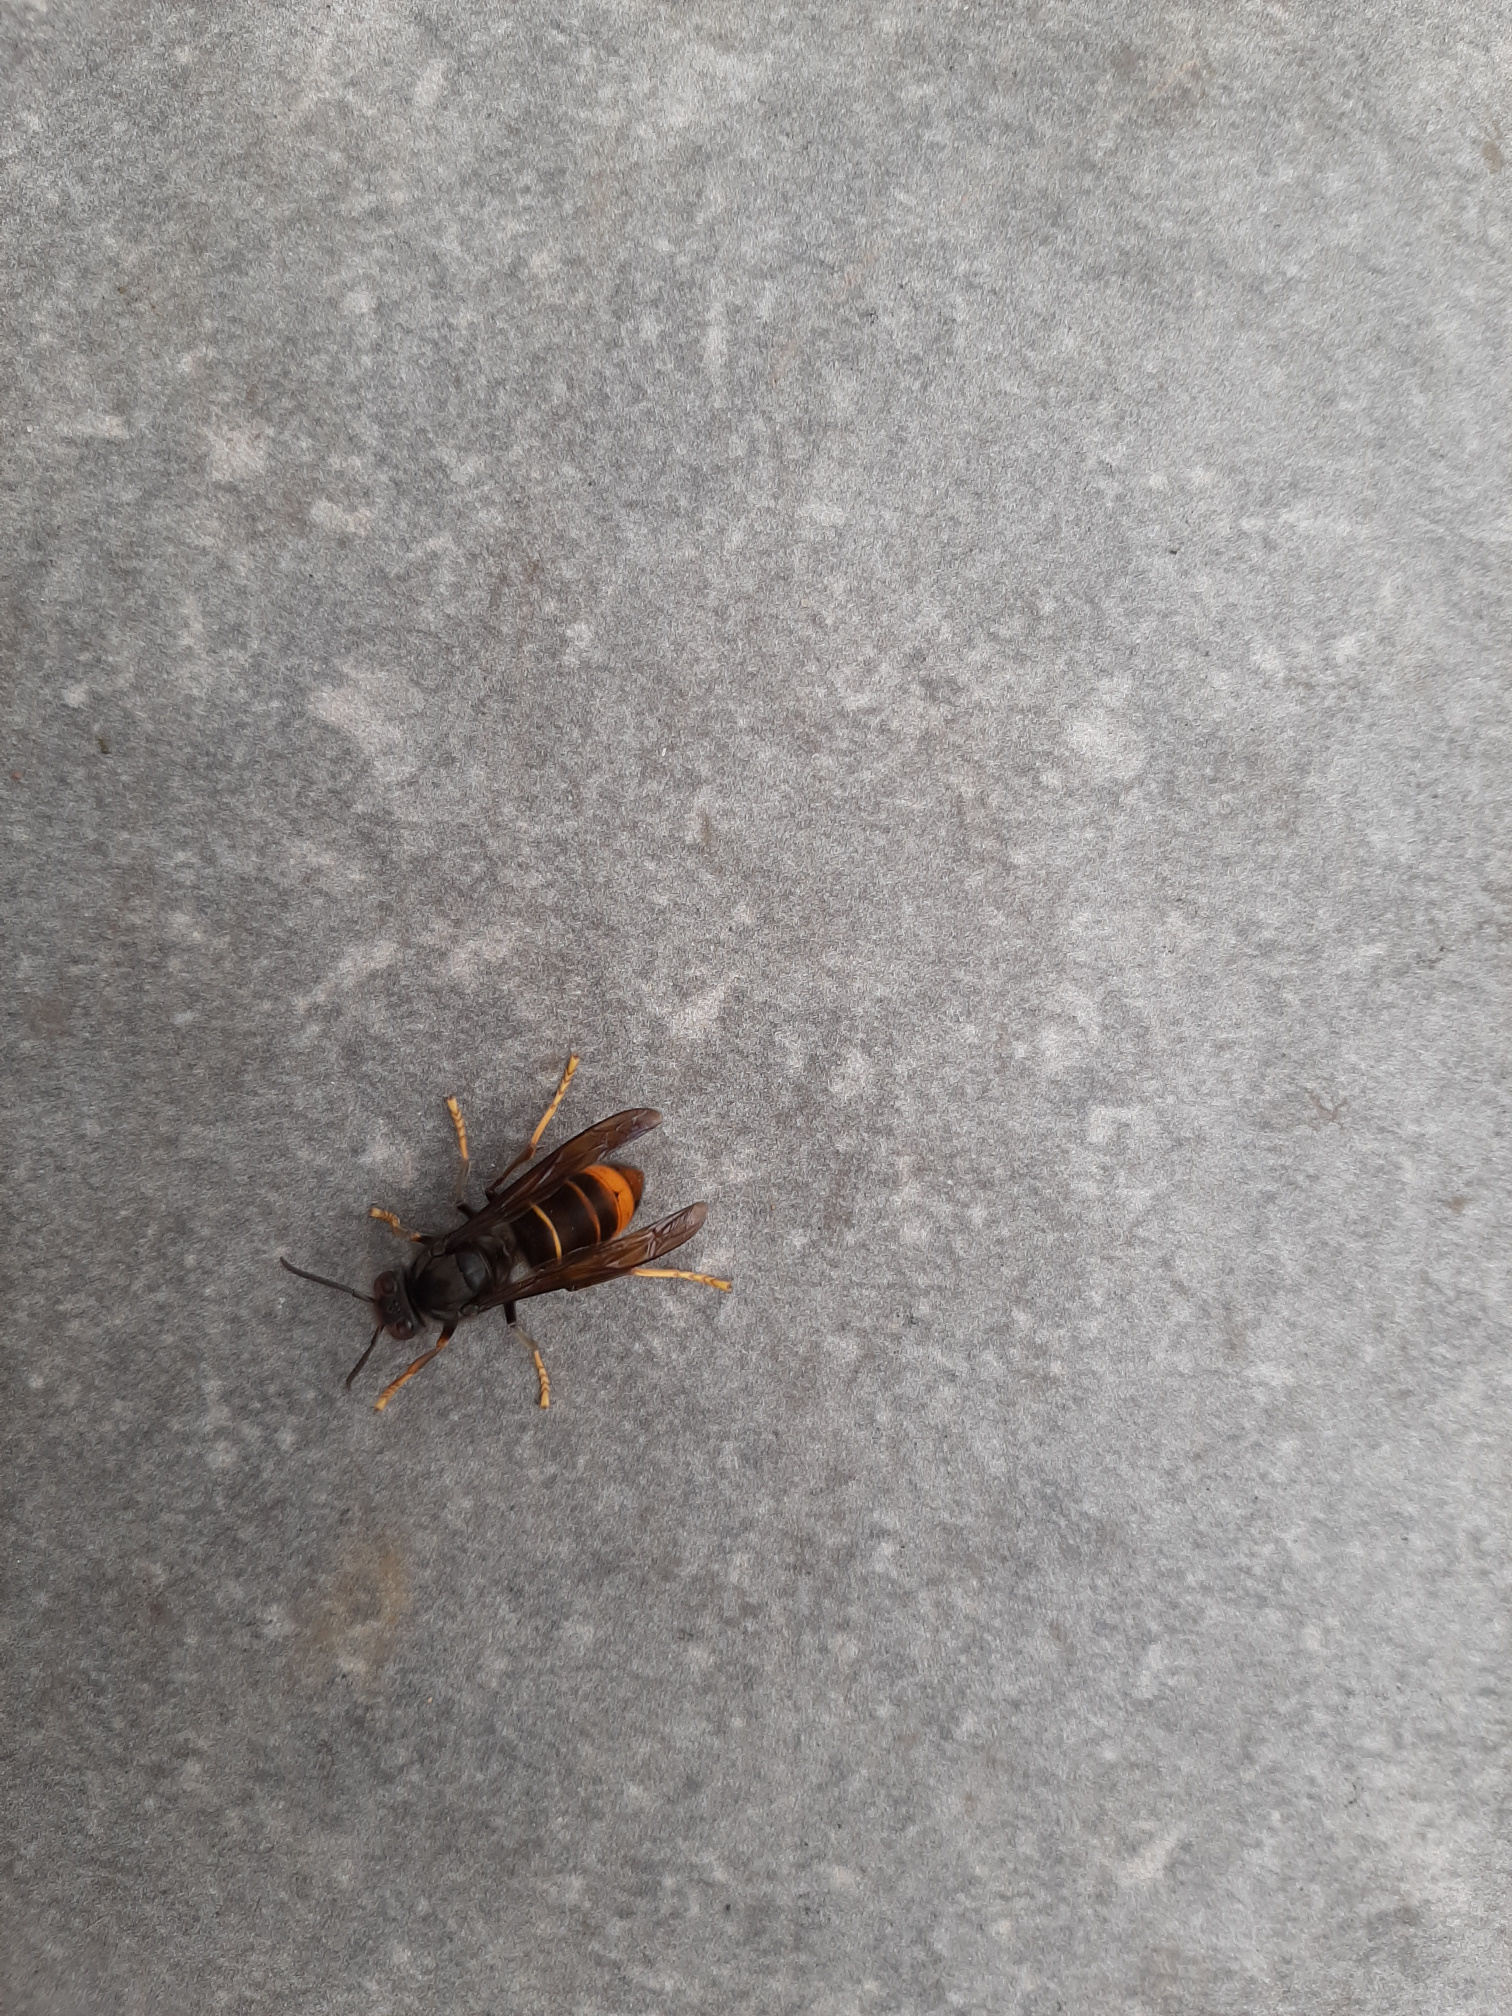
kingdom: Animalia
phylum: Arthropoda
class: Insecta
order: Hymenoptera
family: Vespidae
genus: Vespa
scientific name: Vespa velutina
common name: Asian hornet
